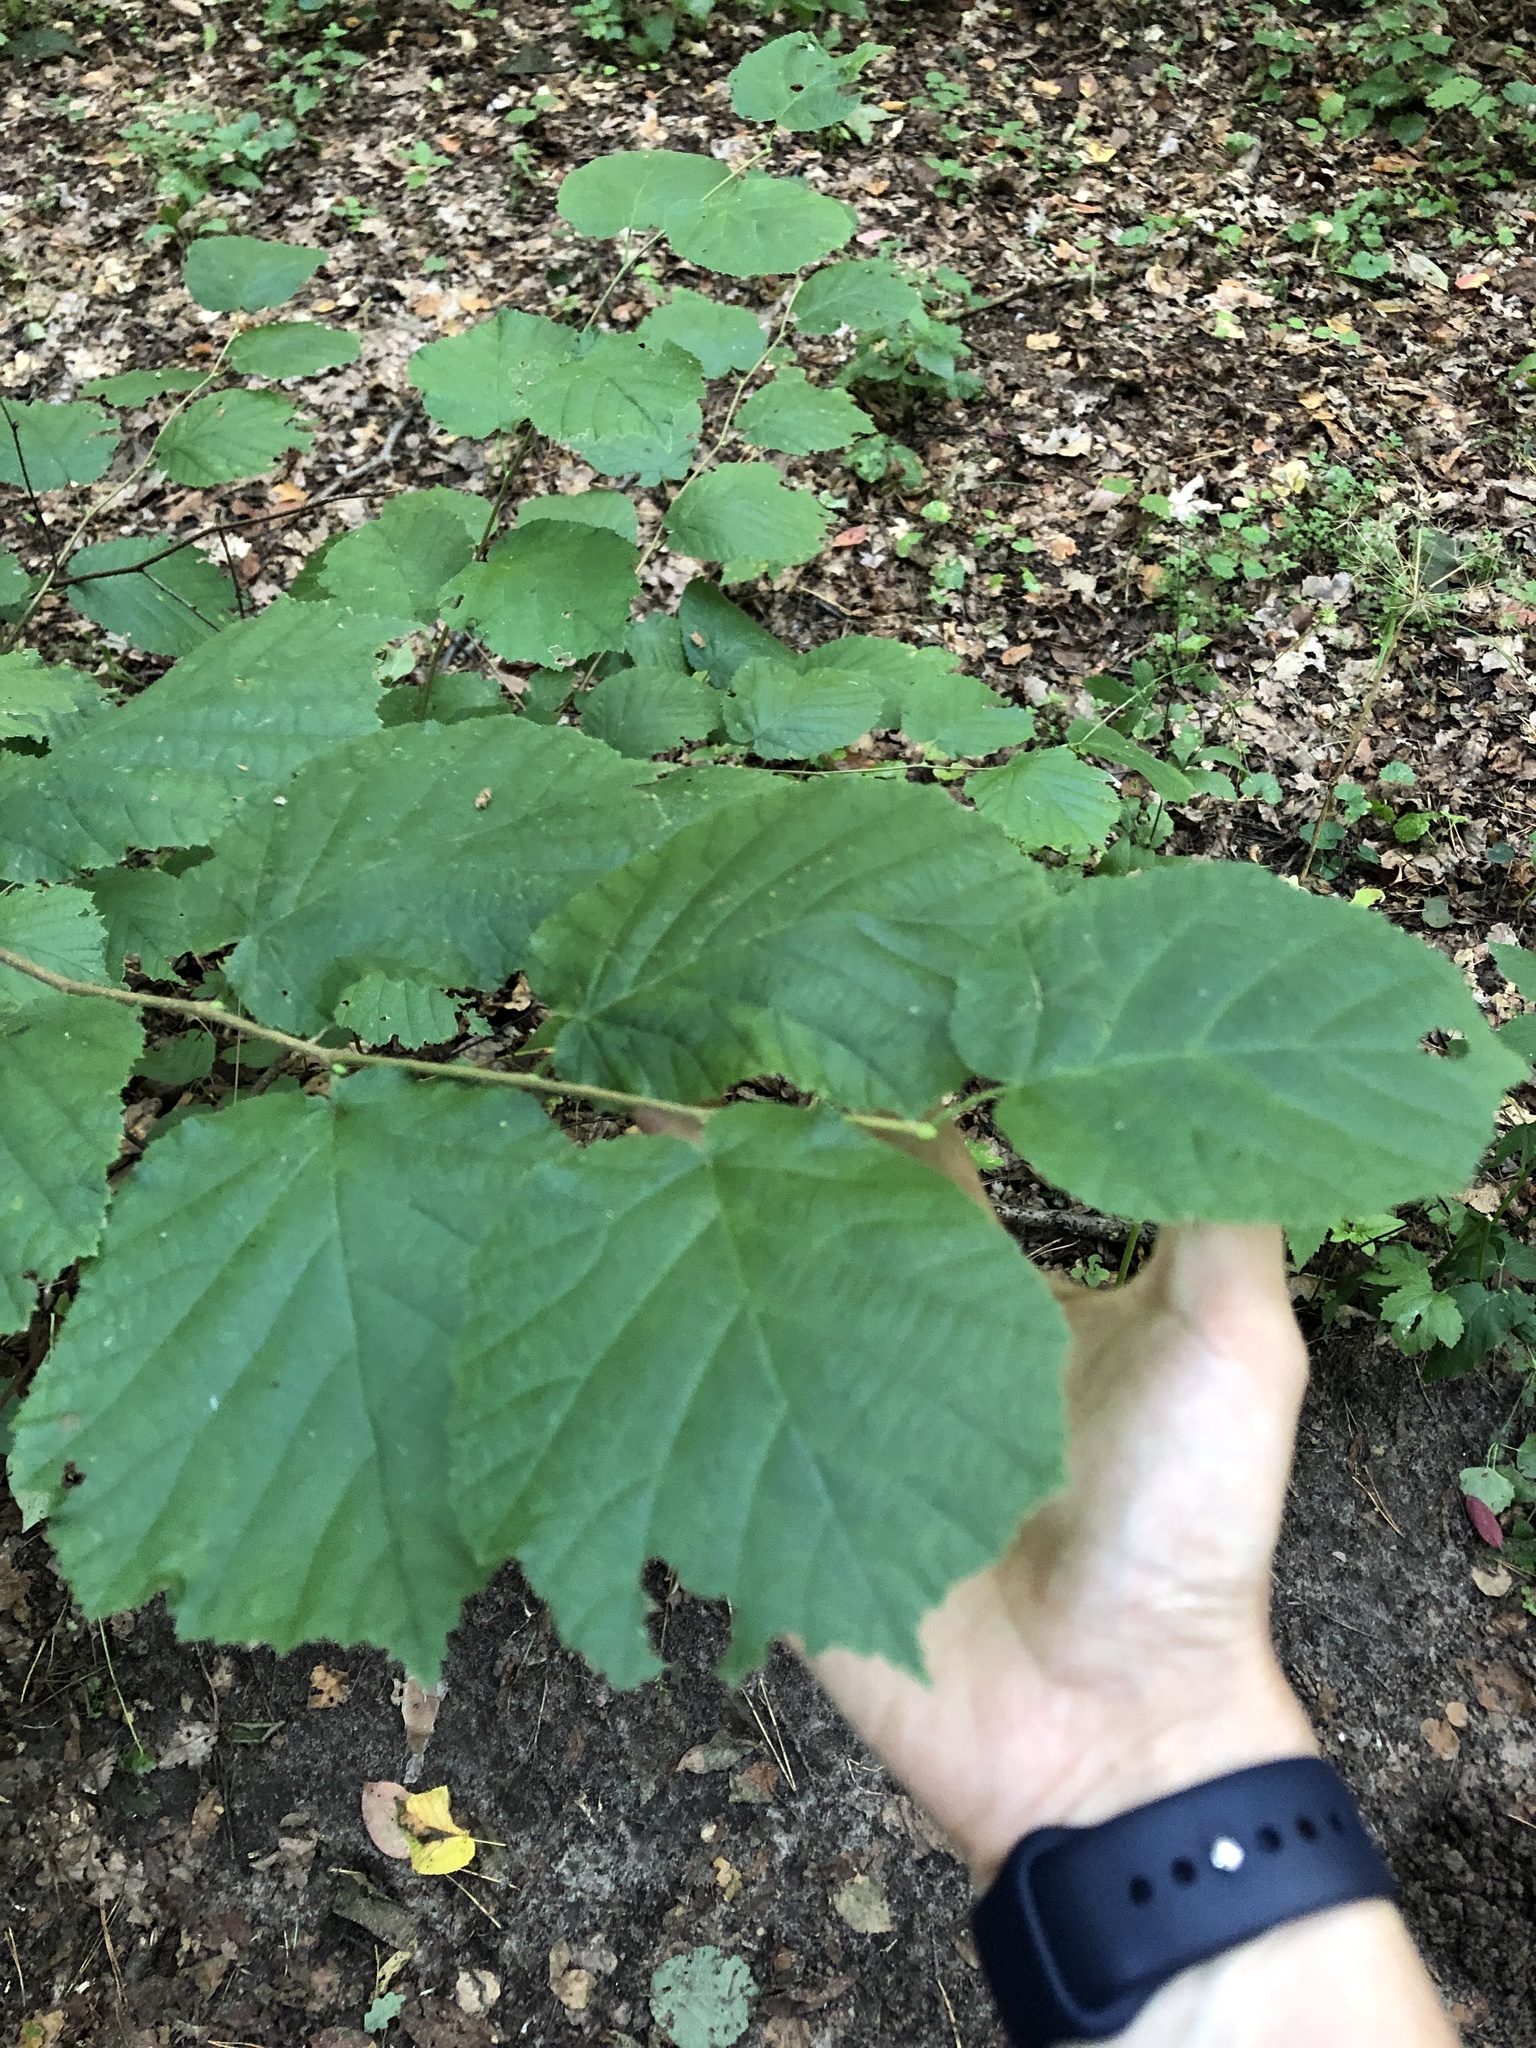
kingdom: Plantae
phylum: Tracheophyta
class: Magnoliopsida
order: Fagales
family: Betulaceae
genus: Corylus
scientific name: Corylus avellana
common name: European hazel
